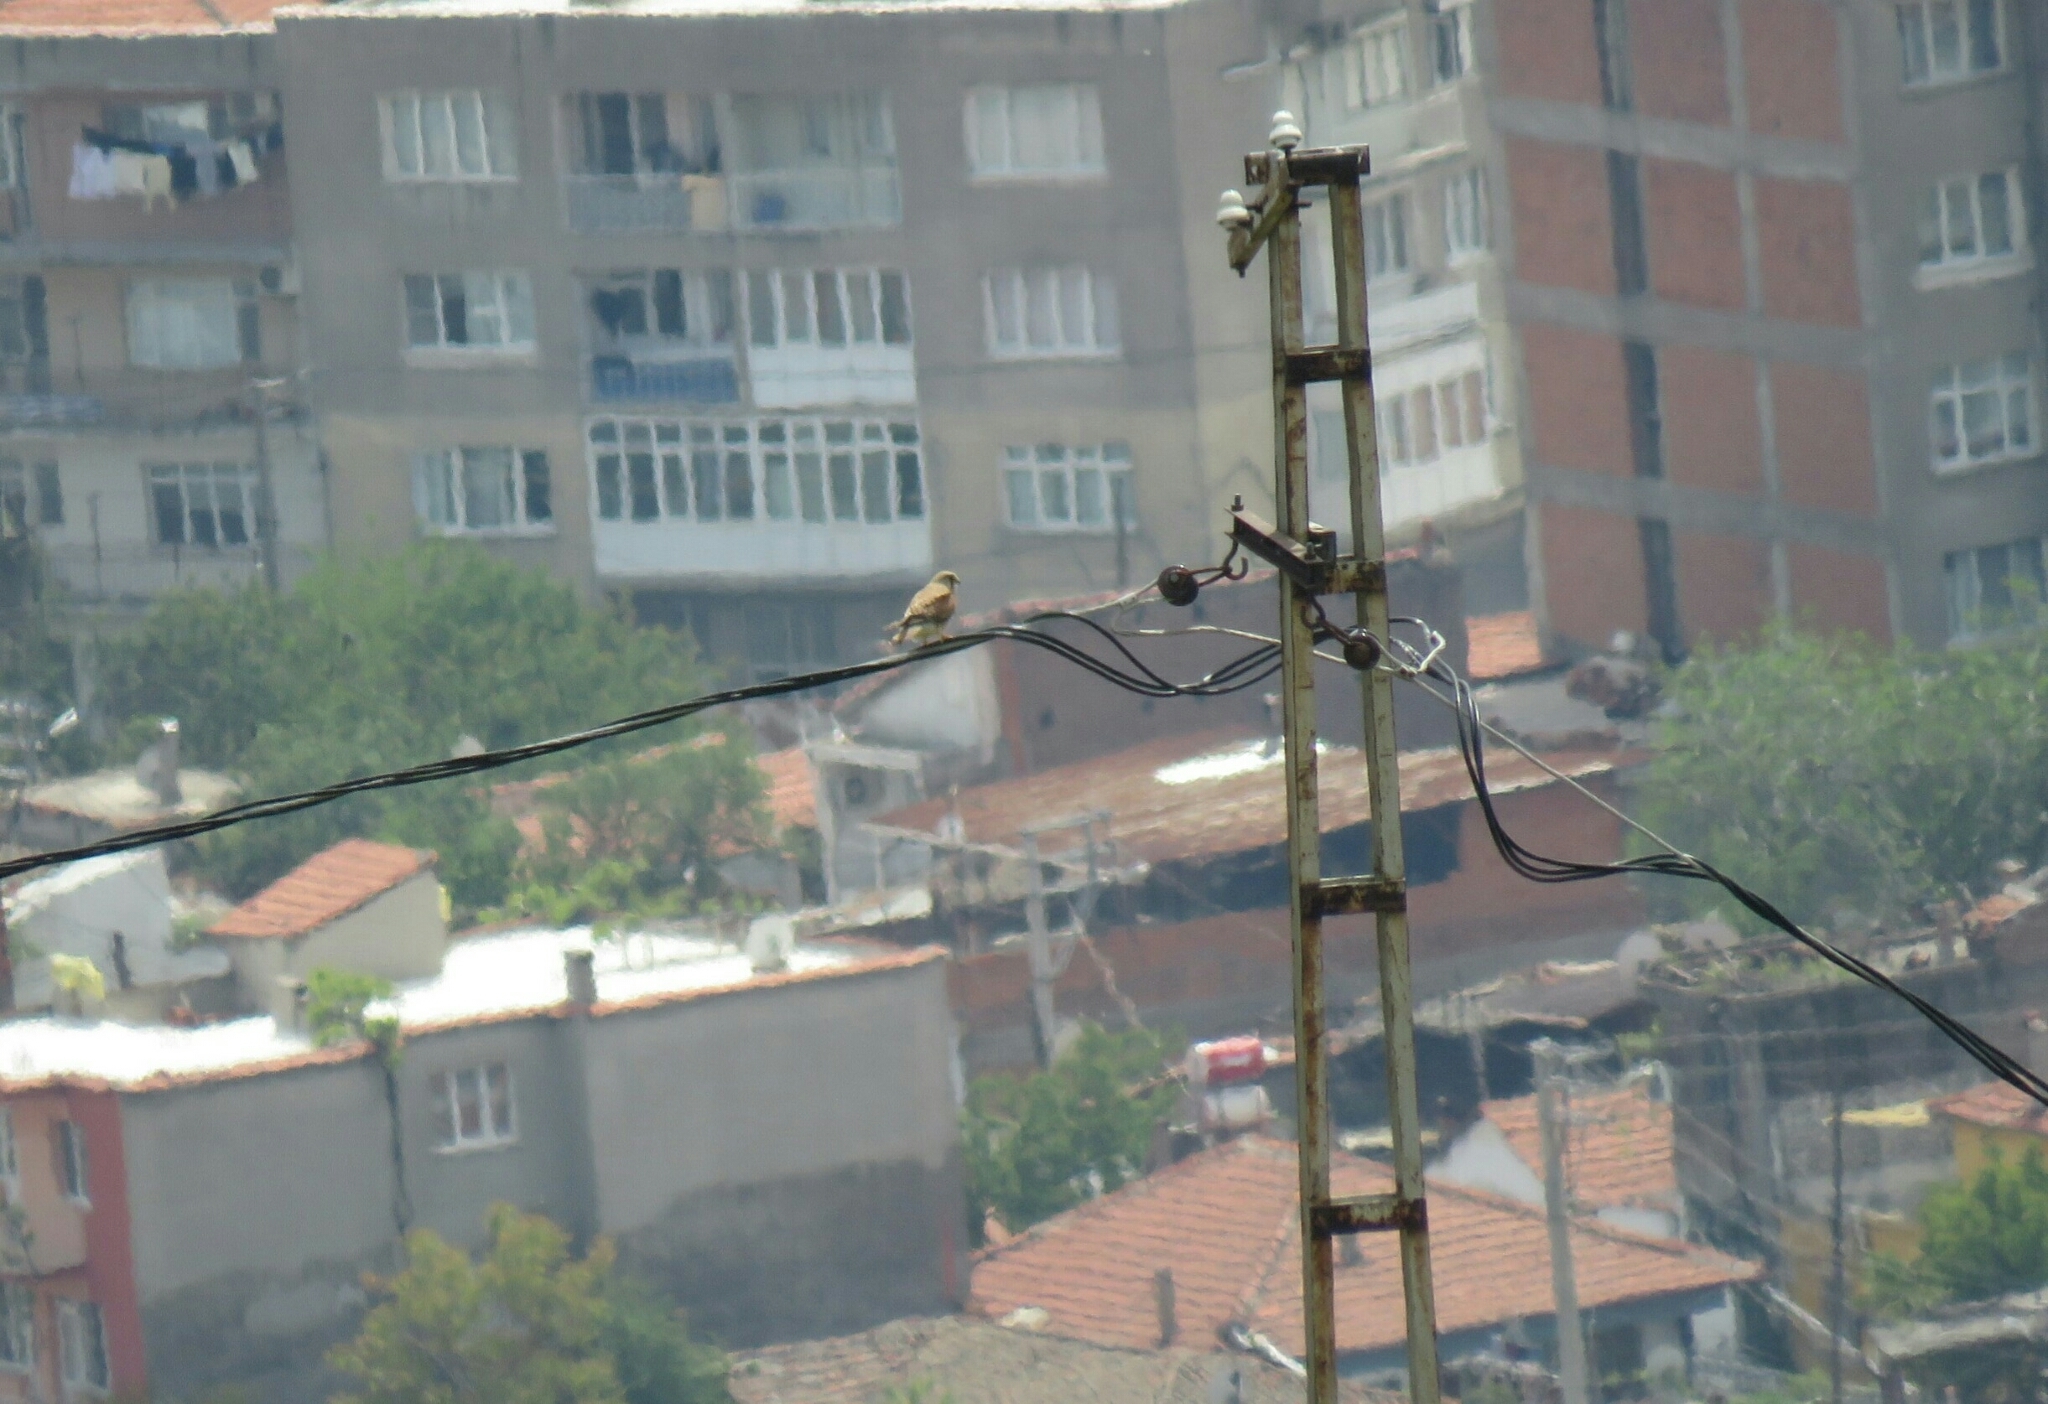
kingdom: Animalia
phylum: Chordata
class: Aves
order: Falconiformes
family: Falconidae
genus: Falco
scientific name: Falco tinnunculus
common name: Common kestrel
